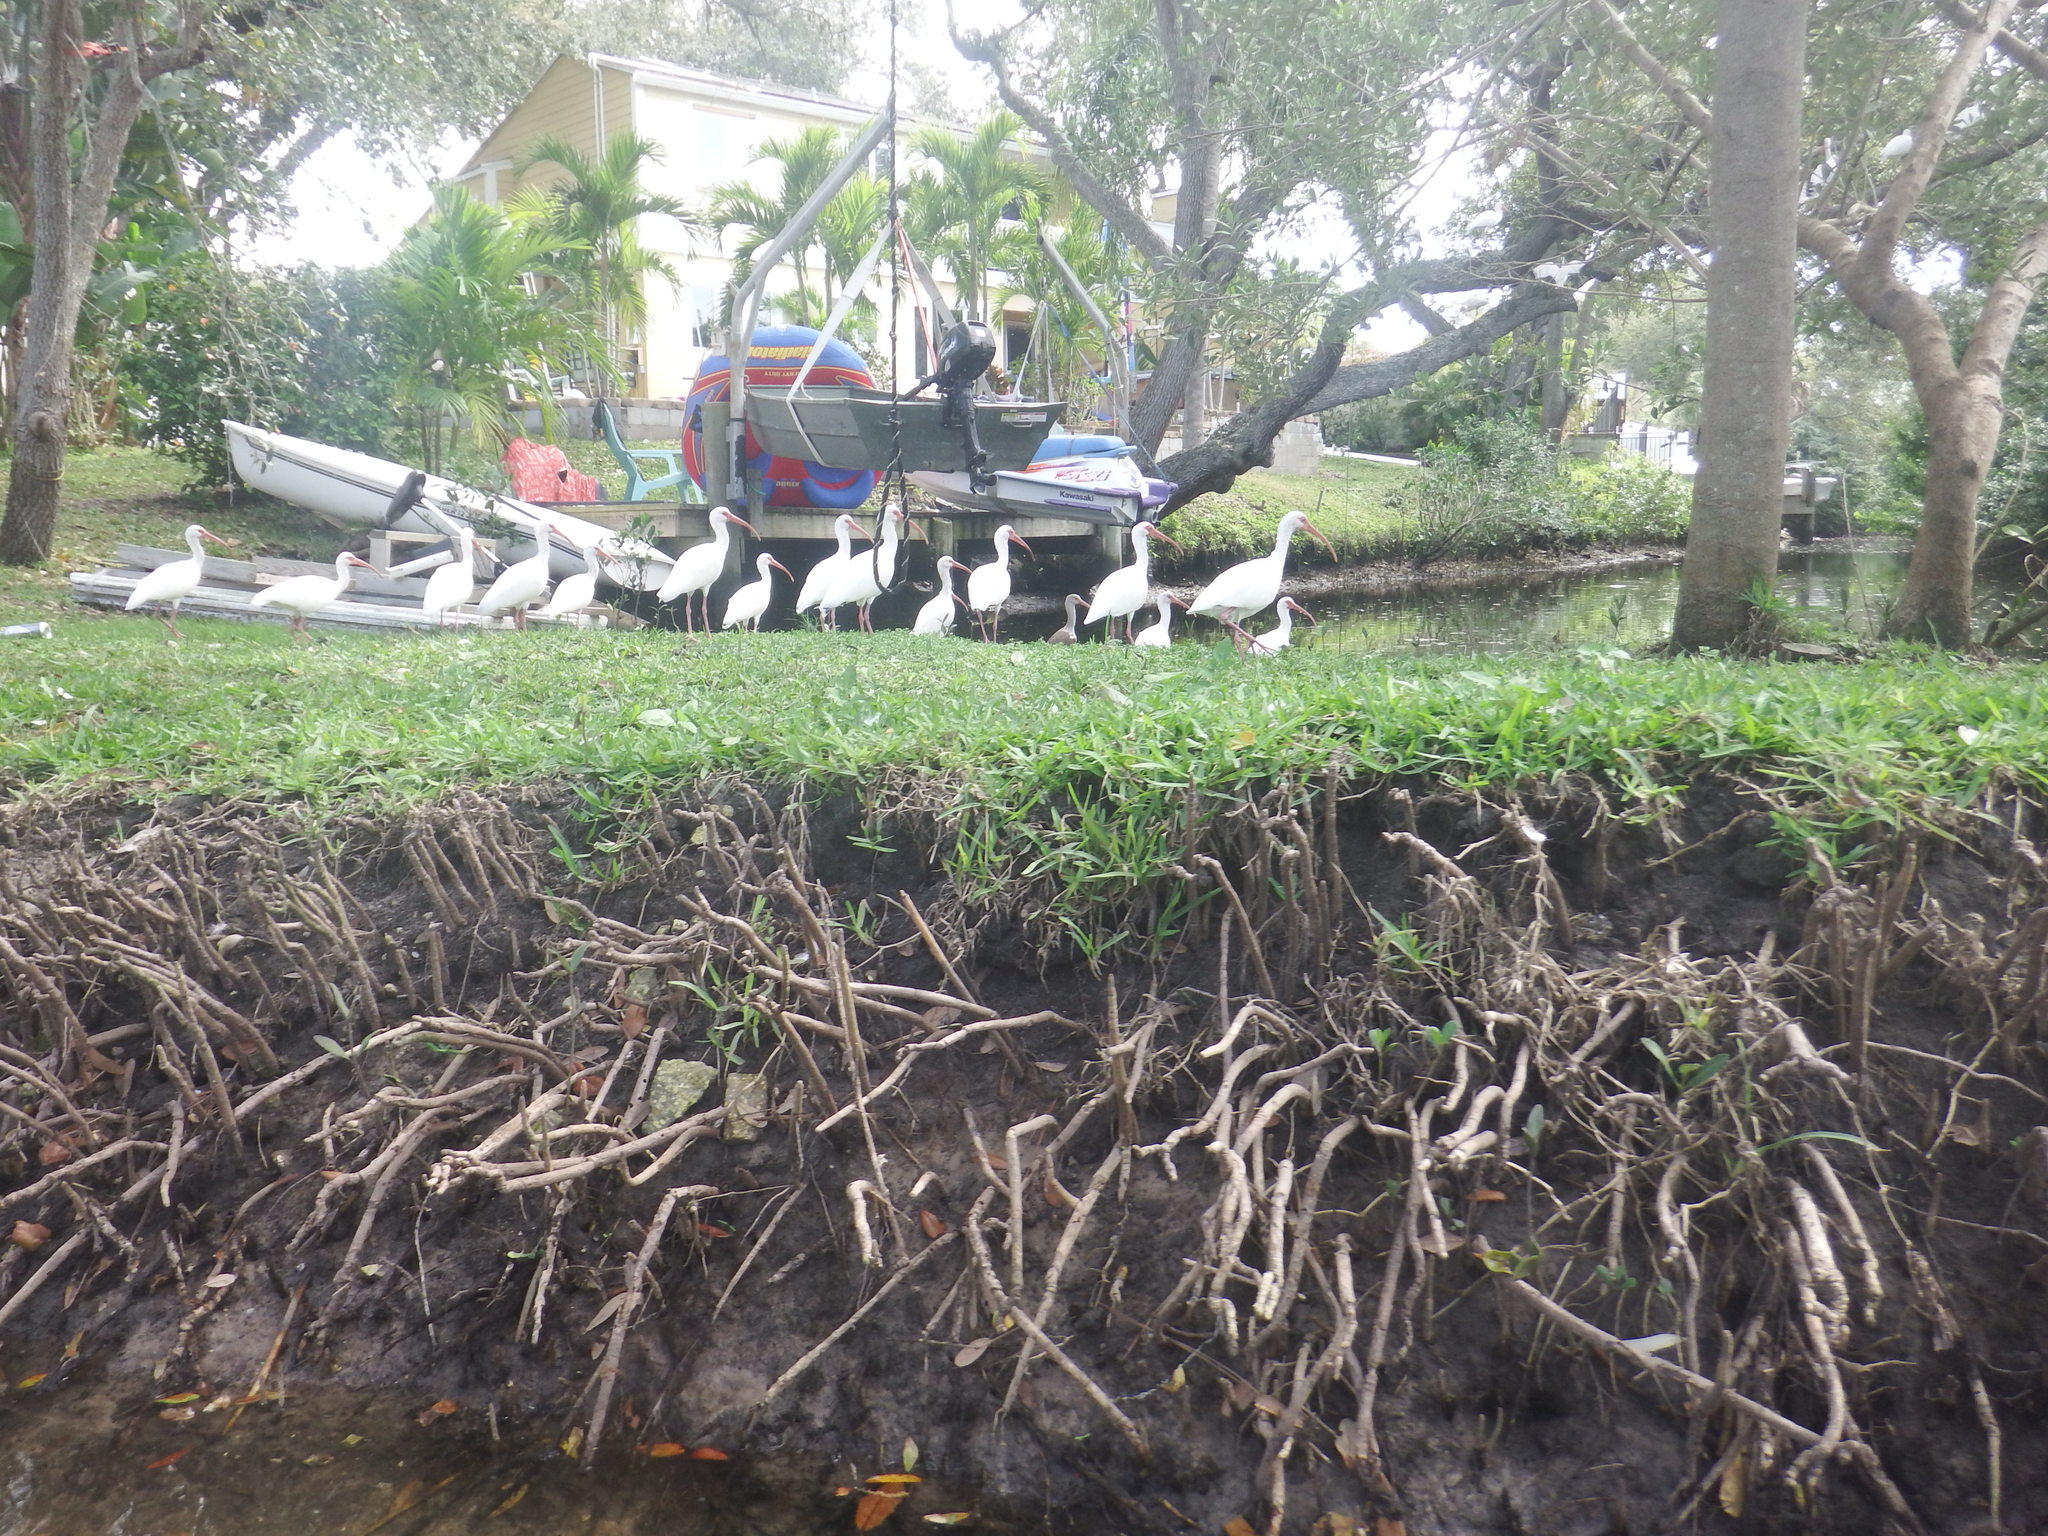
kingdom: Animalia
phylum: Chordata
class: Aves
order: Pelecaniformes
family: Threskiornithidae
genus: Eudocimus
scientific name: Eudocimus albus
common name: White ibis
